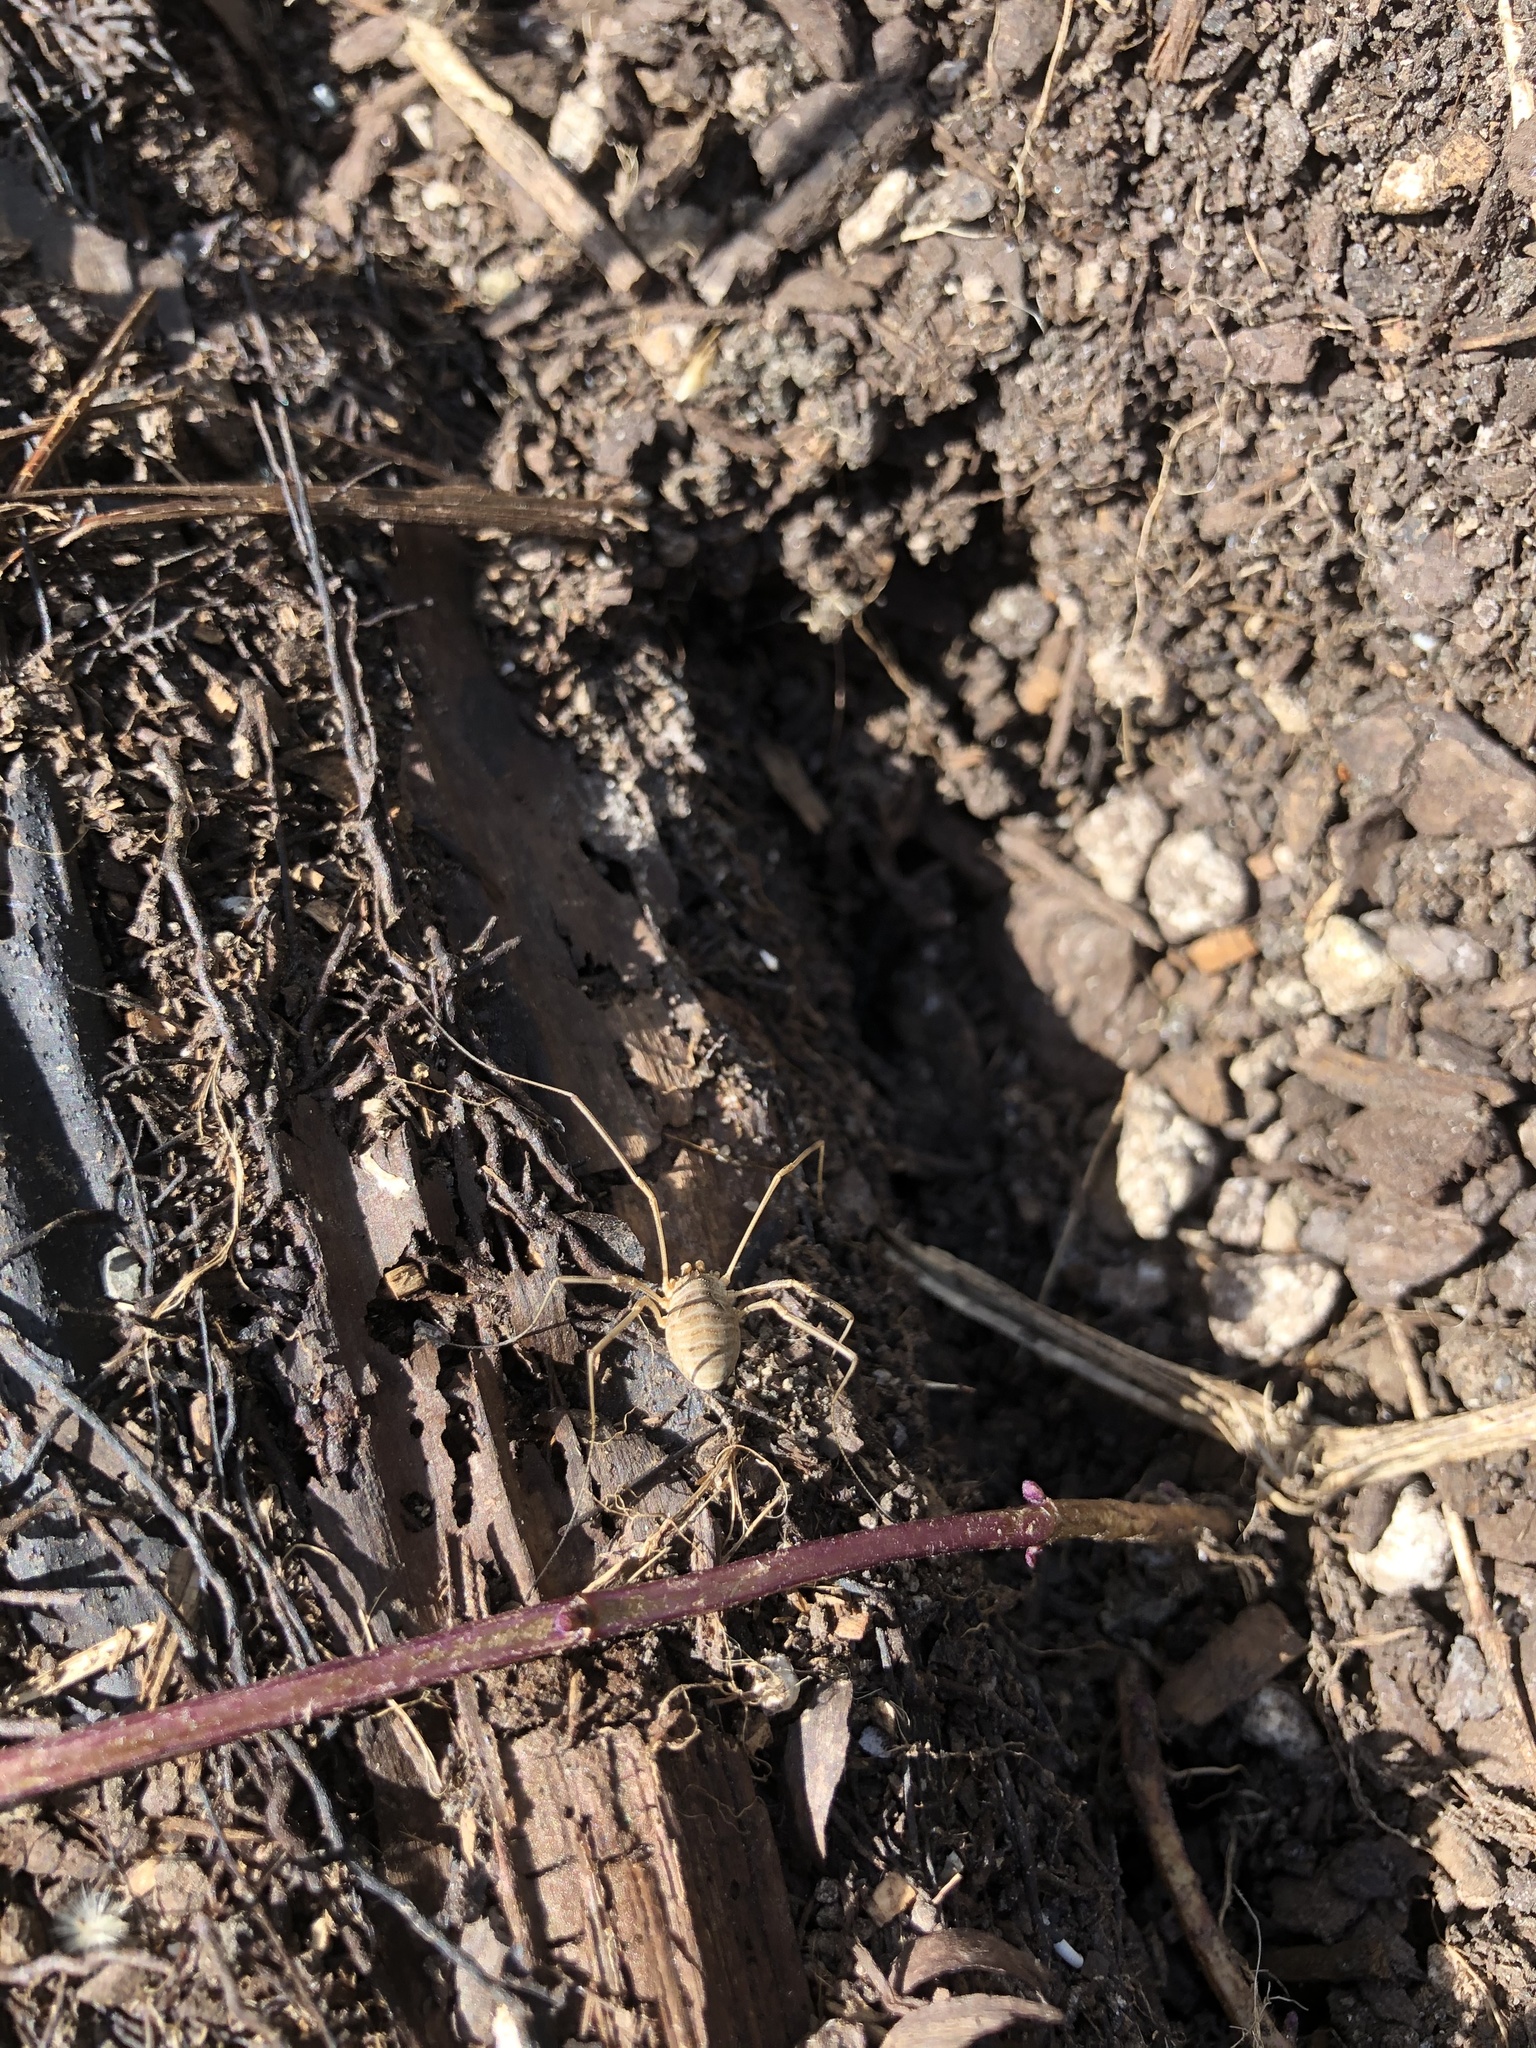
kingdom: Animalia
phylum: Arthropoda
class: Arachnida
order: Opiliones
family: Phalangiidae
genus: Phalangium
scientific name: Phalangium opilio
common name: Daddy longleg
